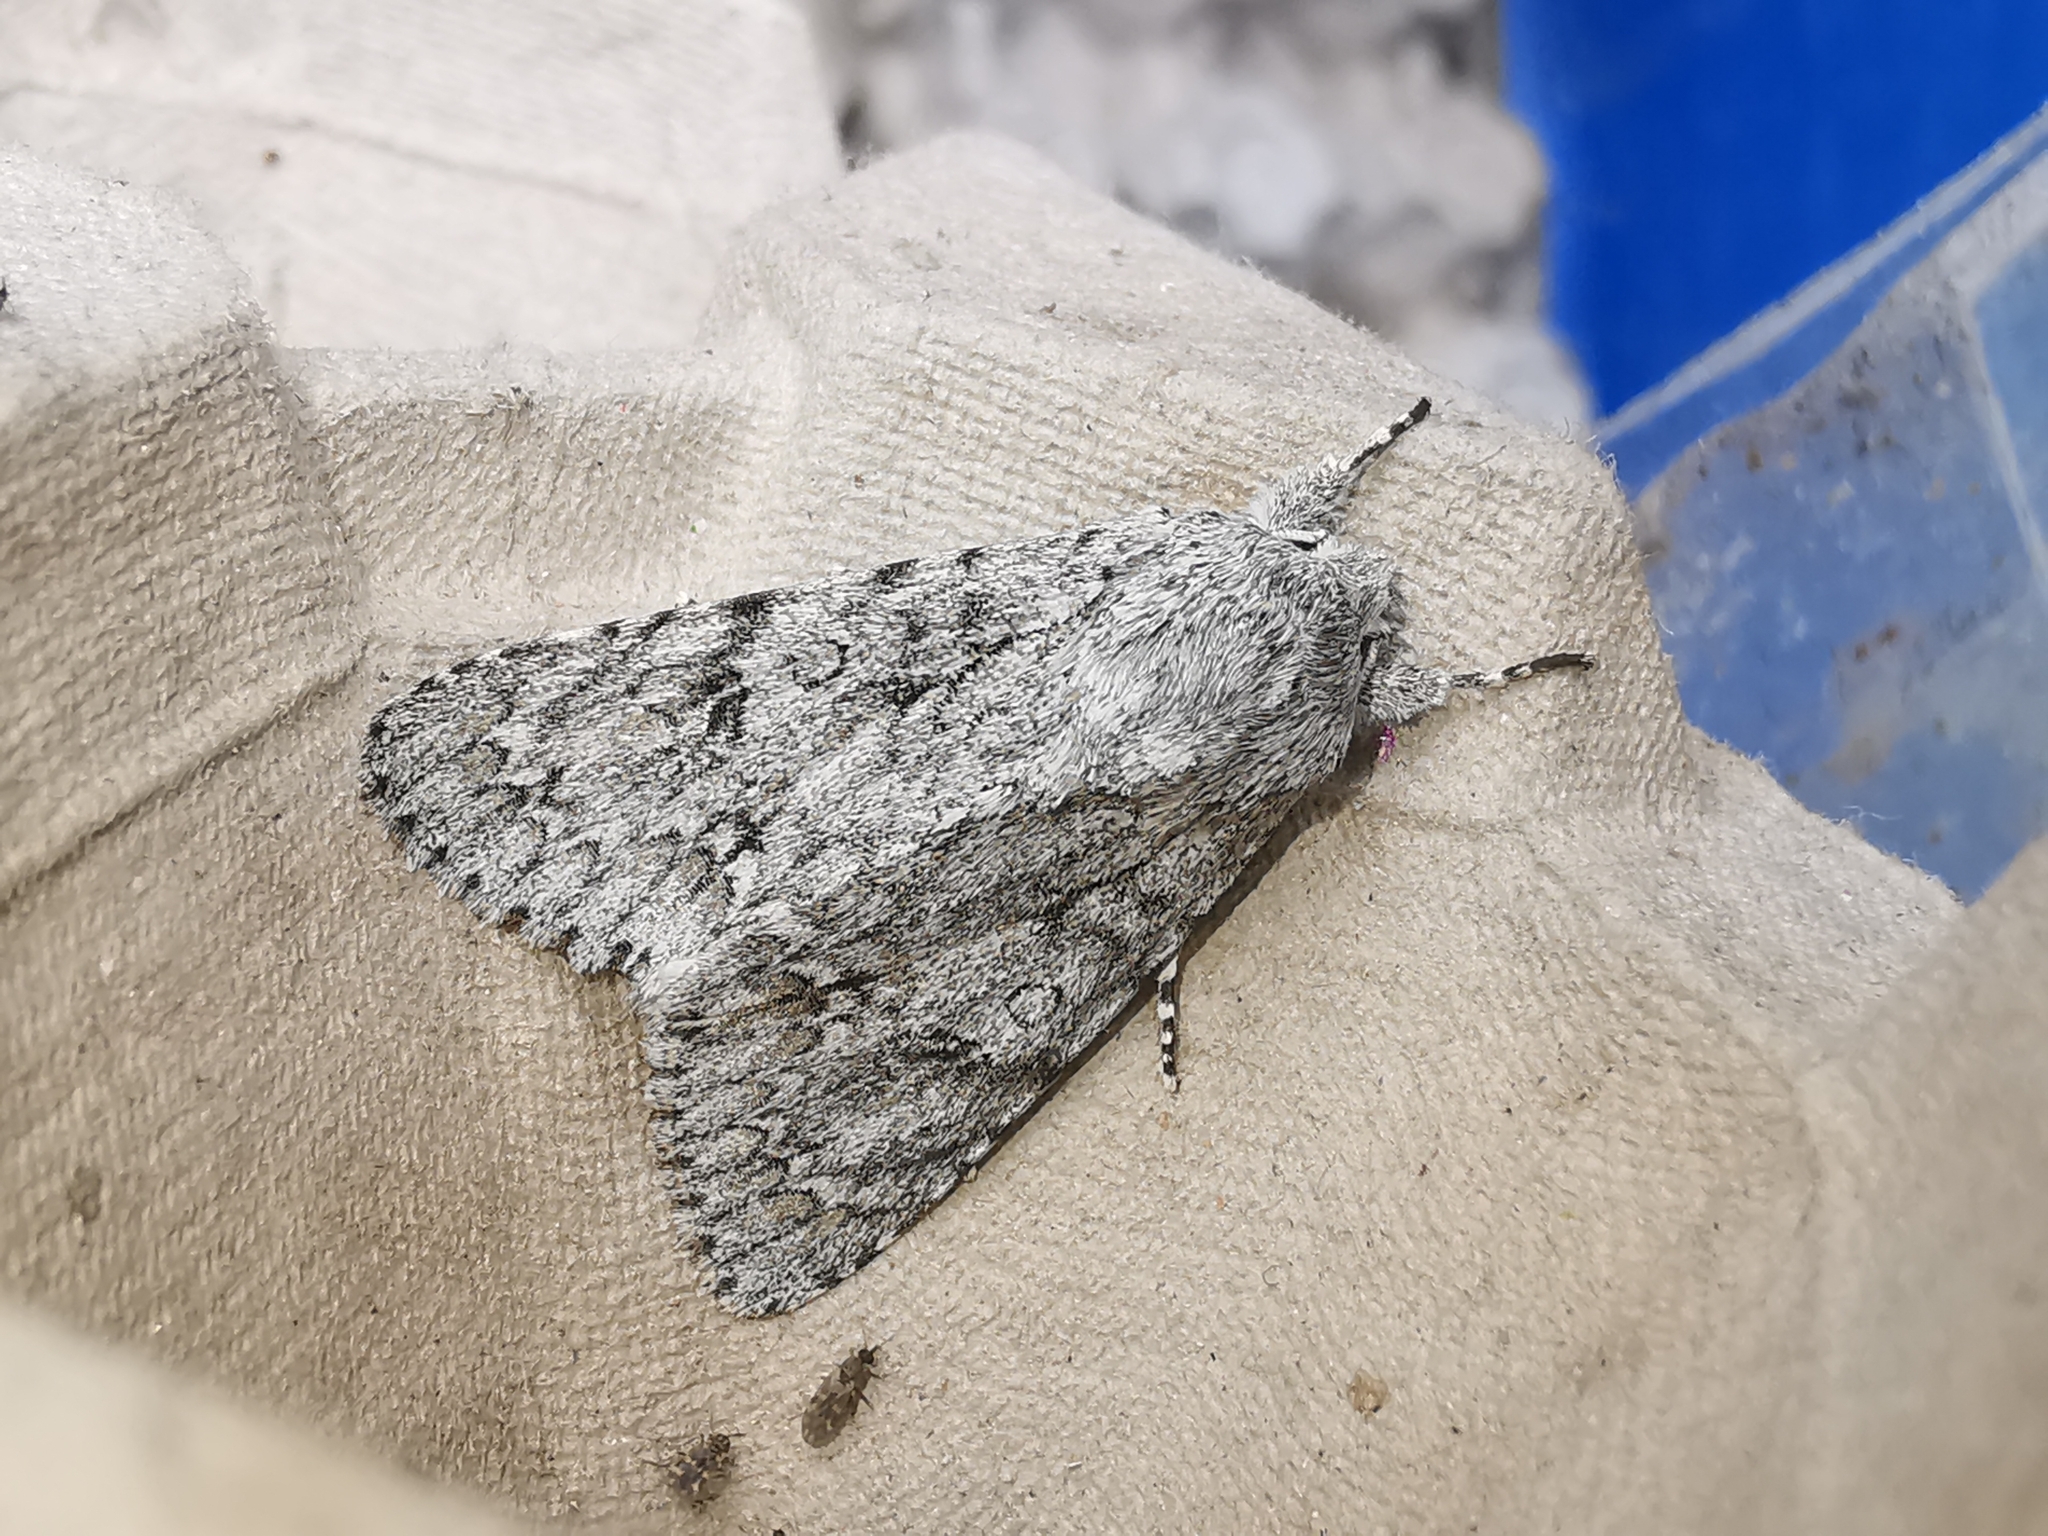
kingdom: Animalia
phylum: Arthropoda
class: Insecta
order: Lepidoptera
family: Noctuidae
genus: Acronicta
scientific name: Acronicta aceris
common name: Sycamore
